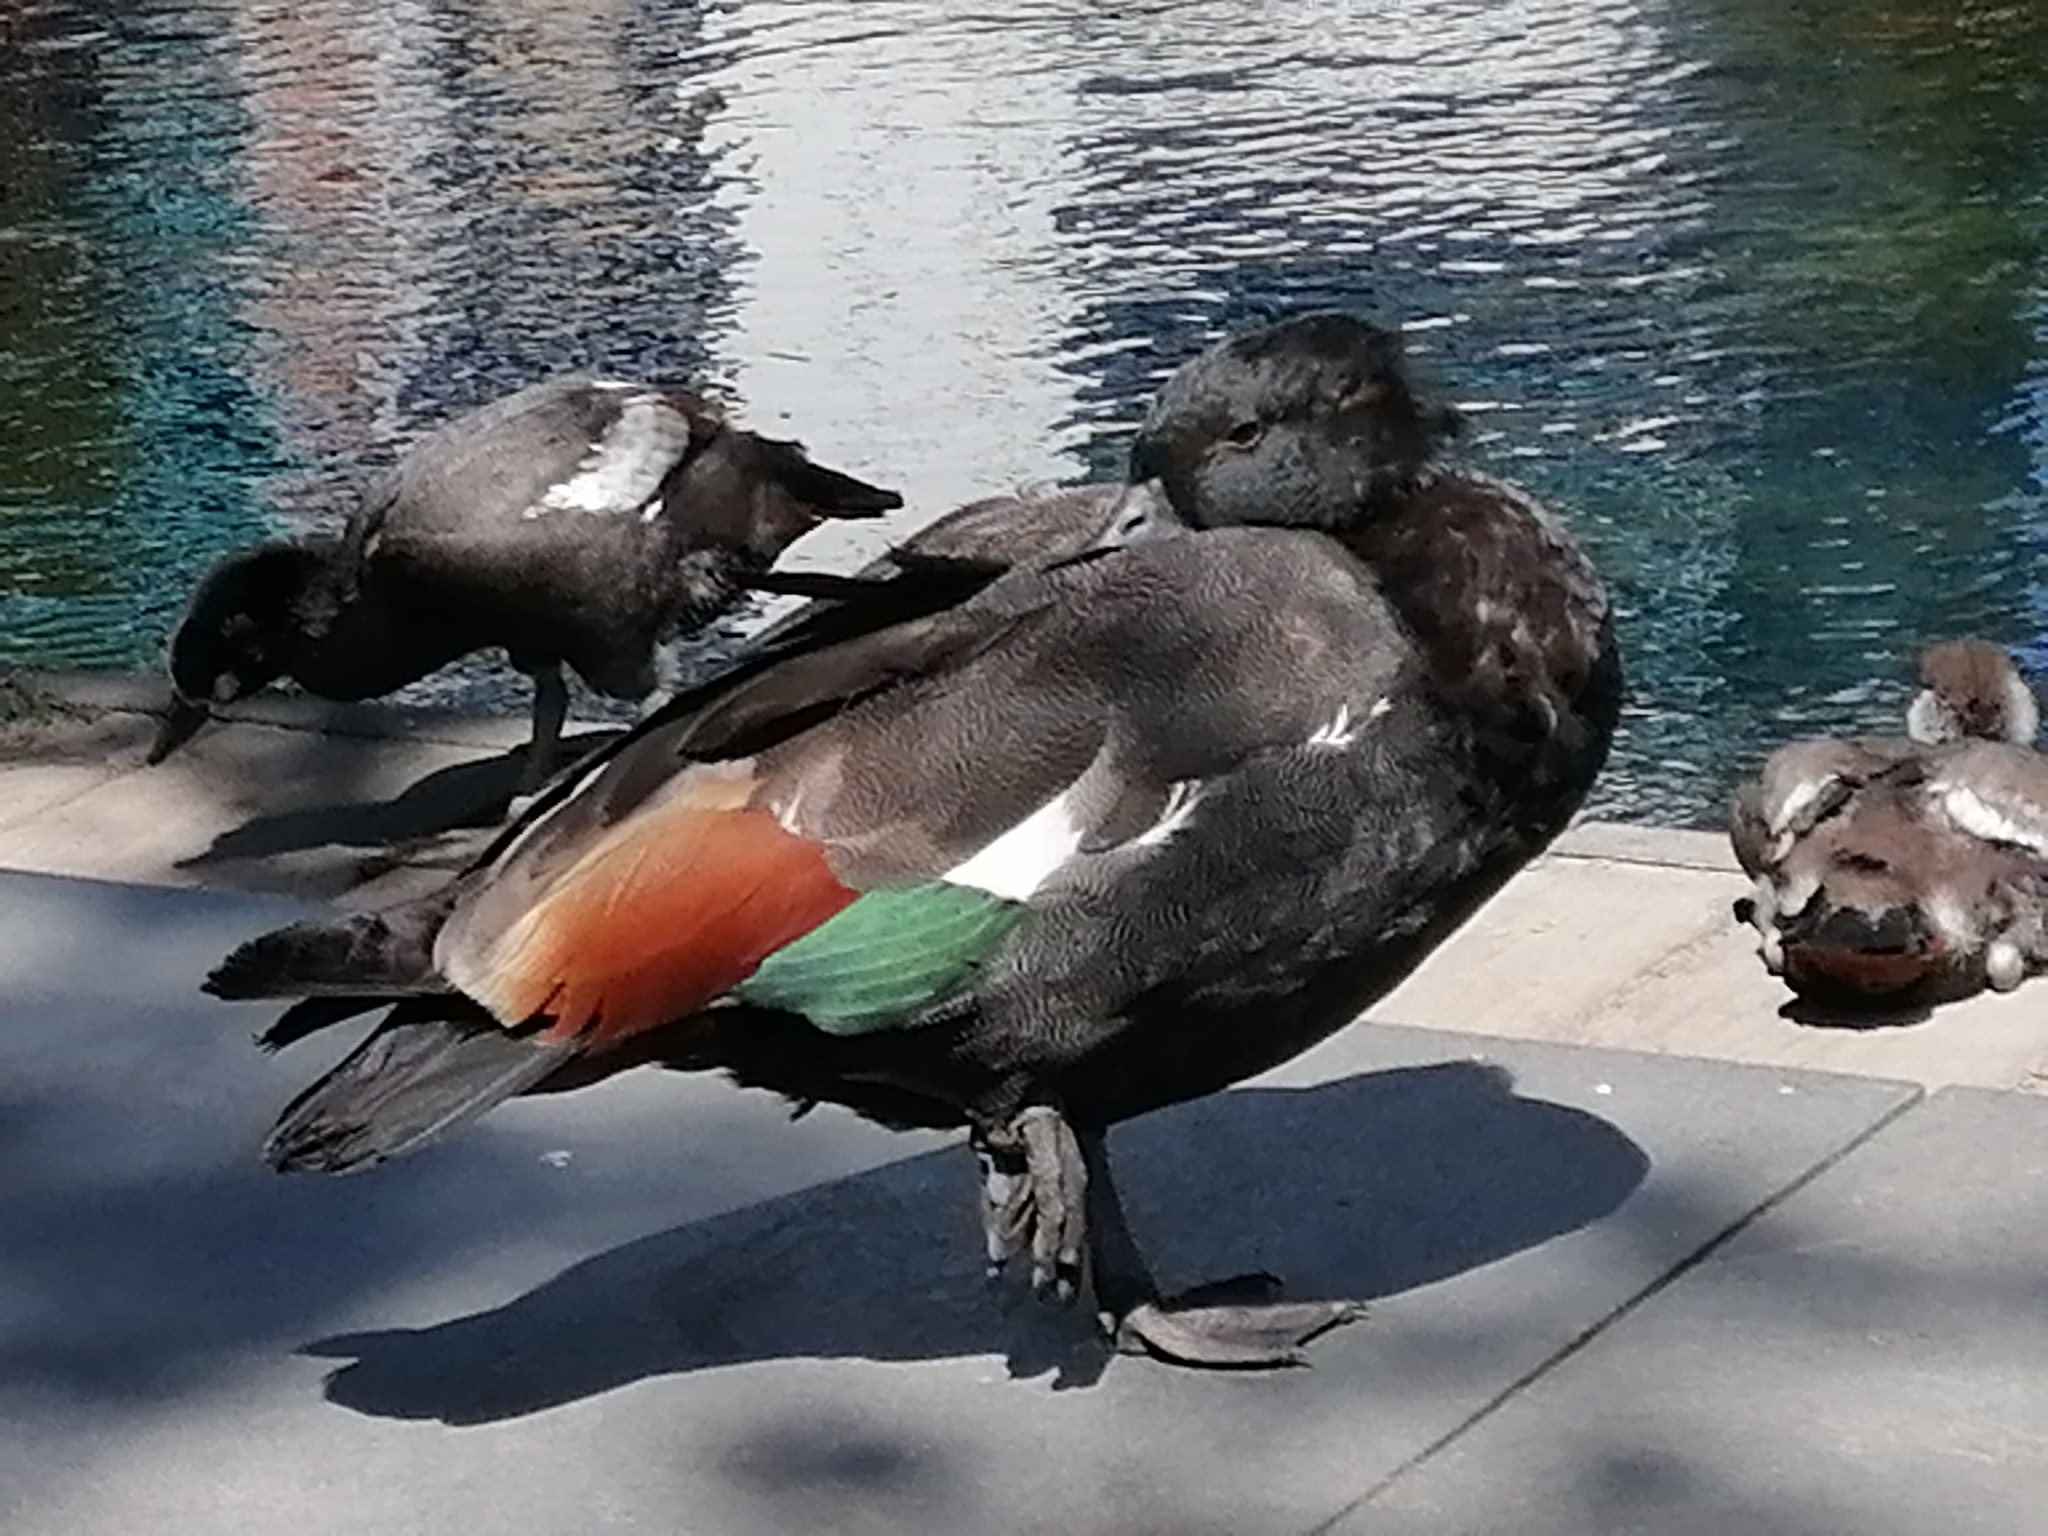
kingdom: Animalia
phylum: Chordata
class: Aves
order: Anseriformes
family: Anatidae
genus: Tadorna
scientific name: Tadorna variegata
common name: Paradise shelduck
